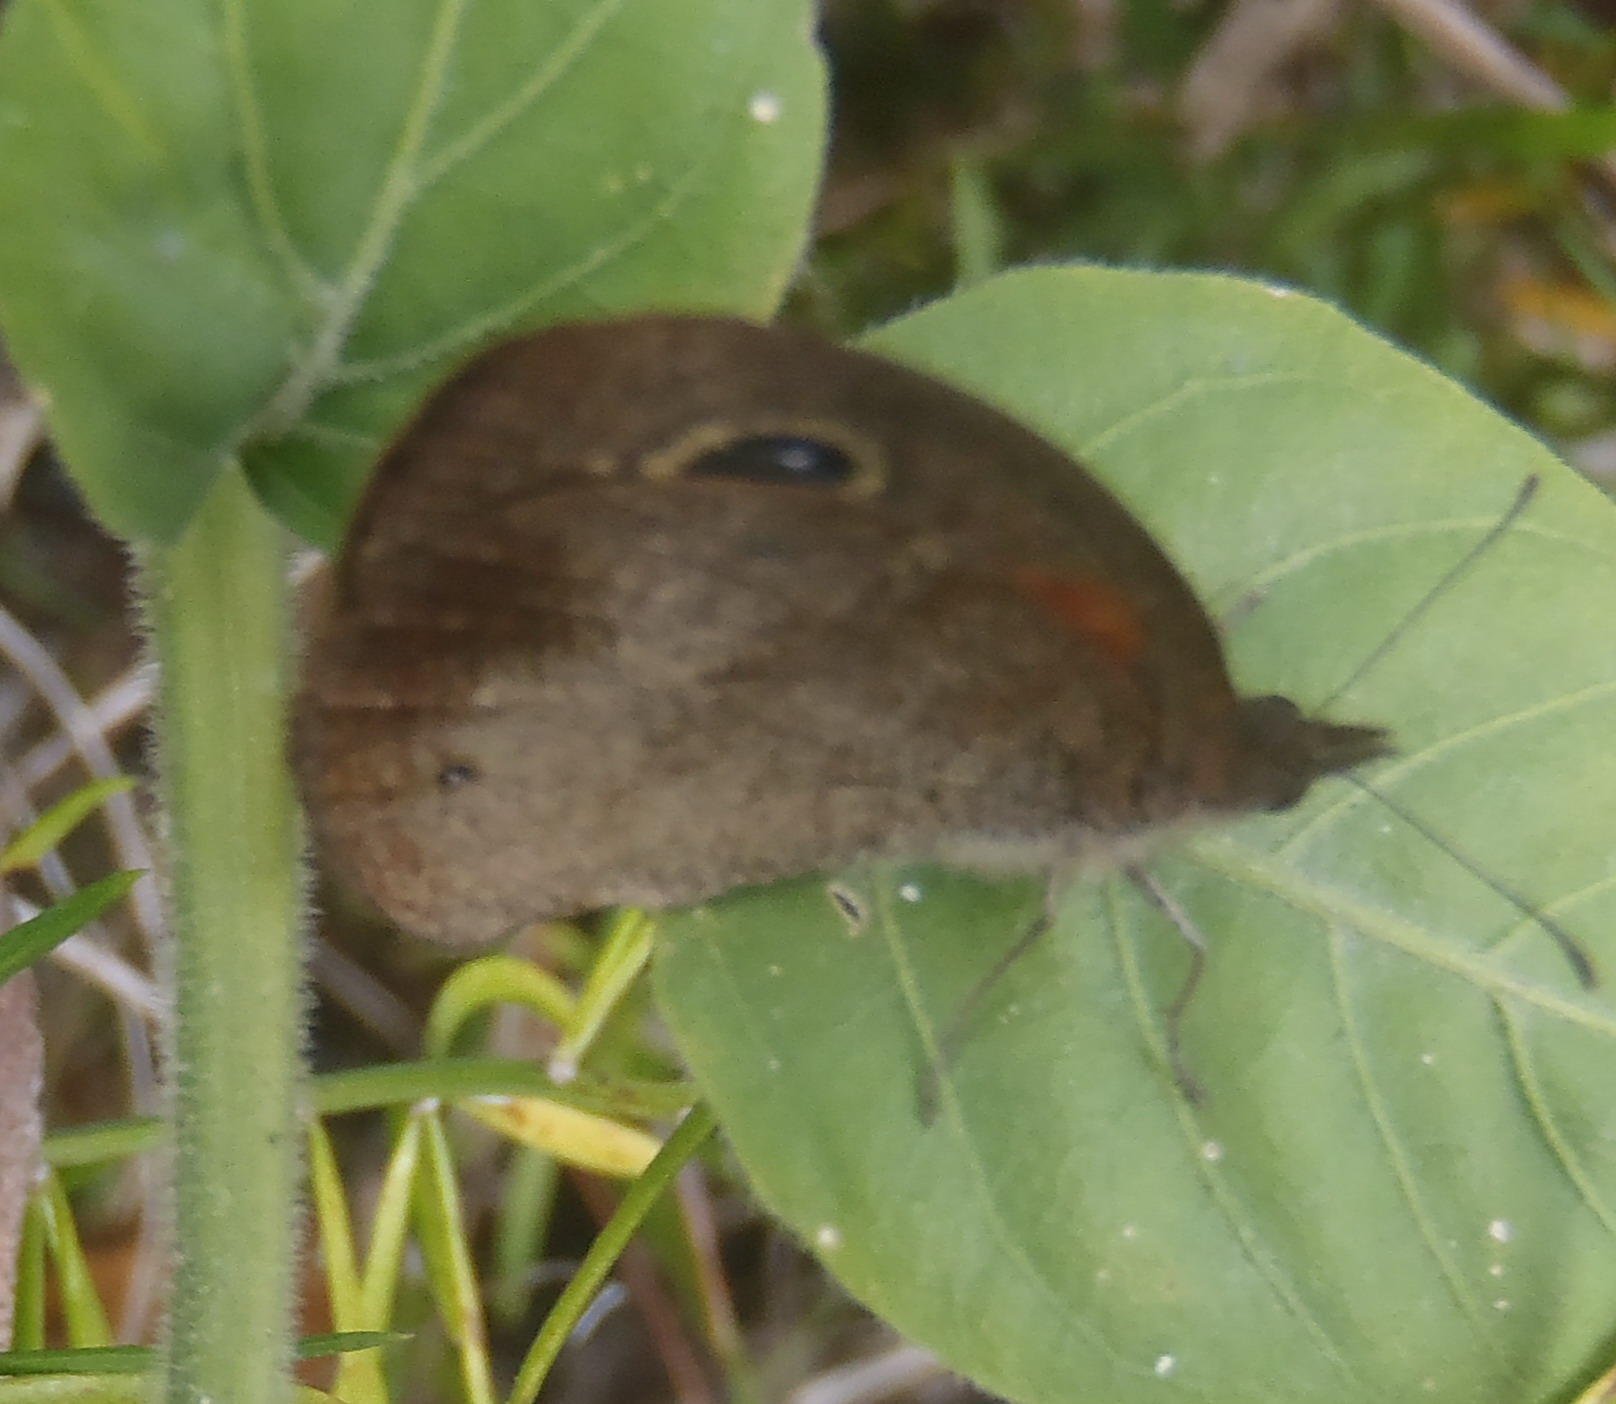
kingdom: Animalia
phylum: Arthropoda
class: Insecta
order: Lepidoptera
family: Nymphalidae
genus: Cassionympha
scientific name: Cassionympha cassius
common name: Rainforest brown
